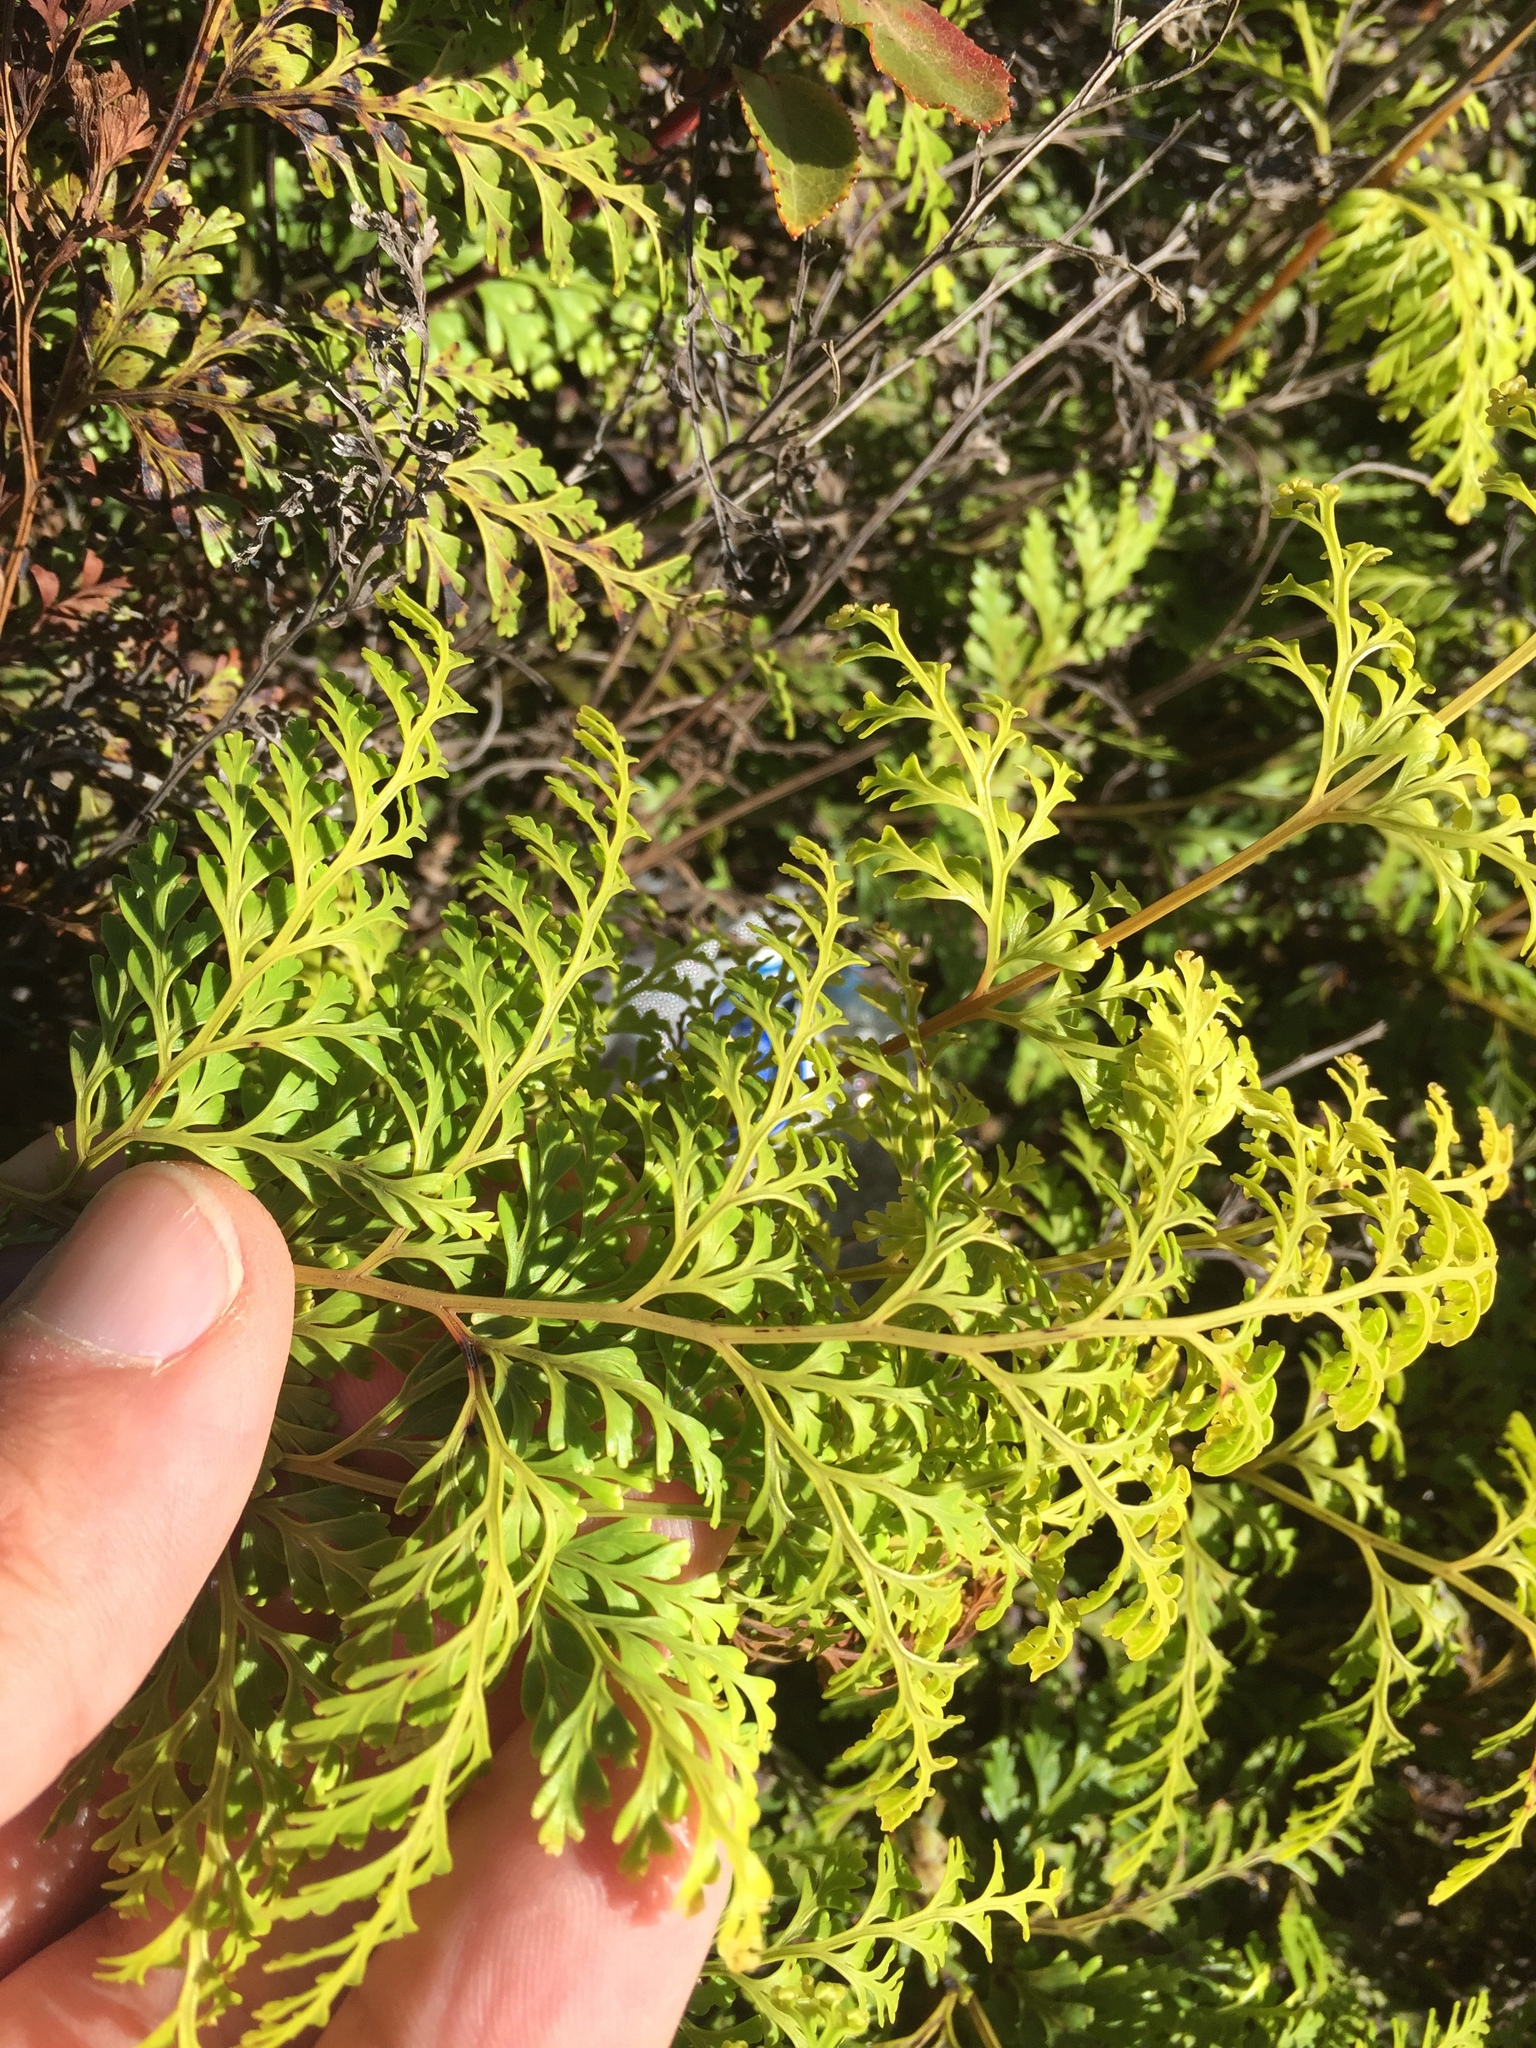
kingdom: Plantae
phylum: Tracheophyta
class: Polypodiopsida
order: Polypodiales
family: Lindsaeaceae
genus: Odontosoria
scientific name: Odontosoria chinensis
